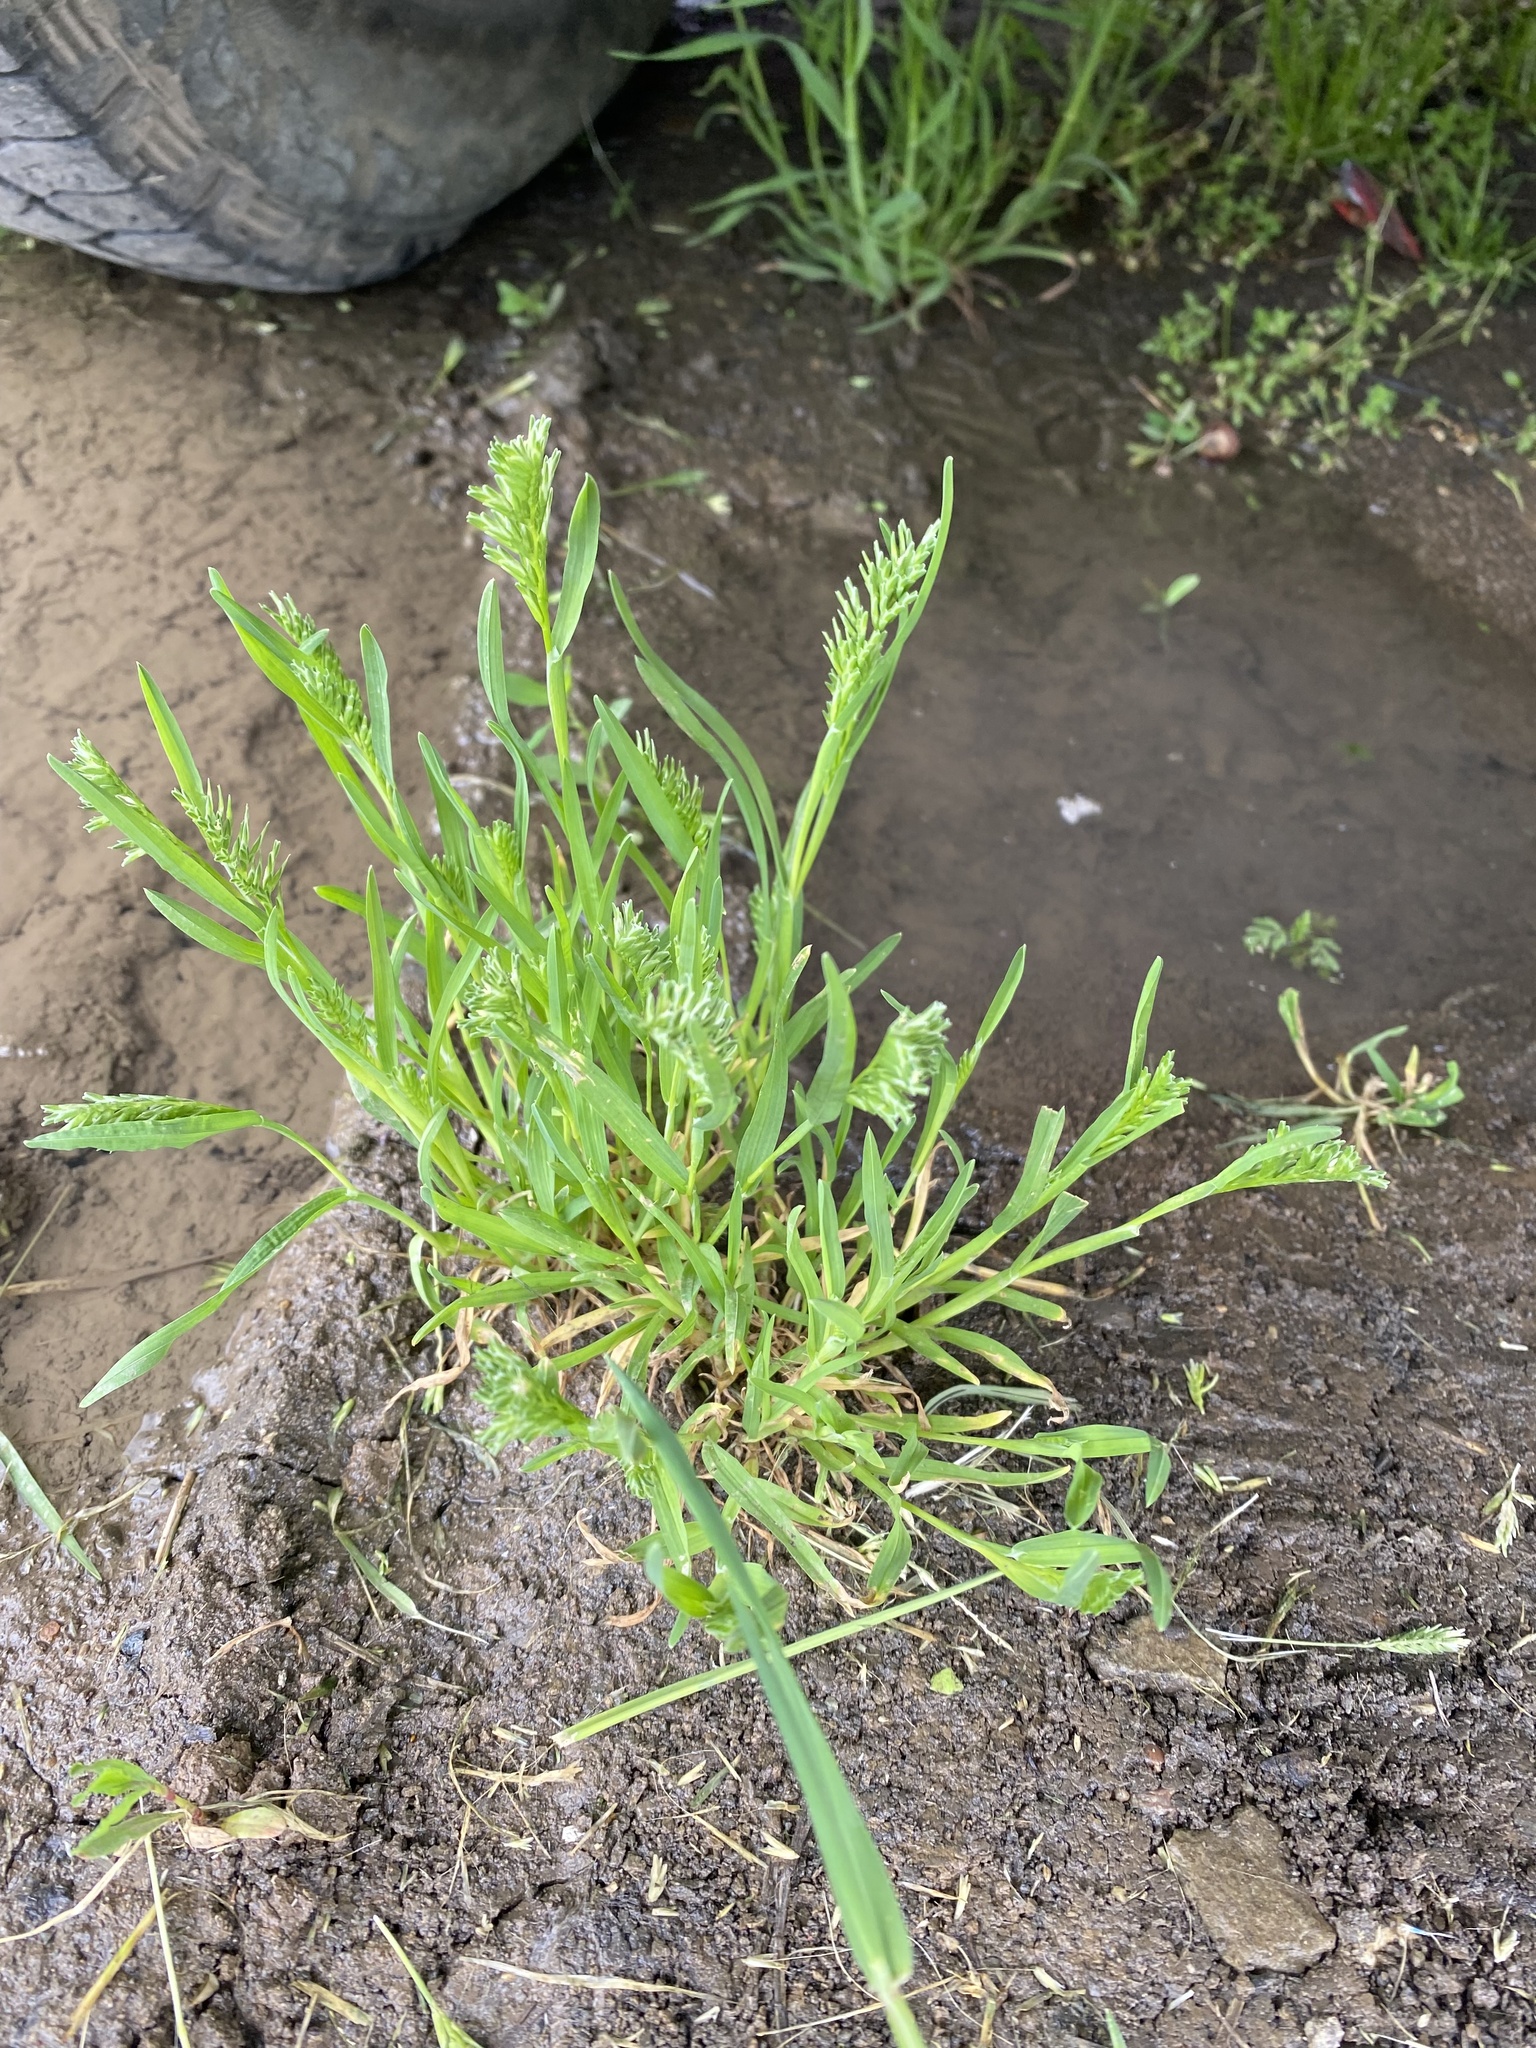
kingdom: Plantae
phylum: Tracheophyta
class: Liliopsida
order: Poales
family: Poaceae
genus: Sclerochloa
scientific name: Sclerochloa dura
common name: Common hardgrass
